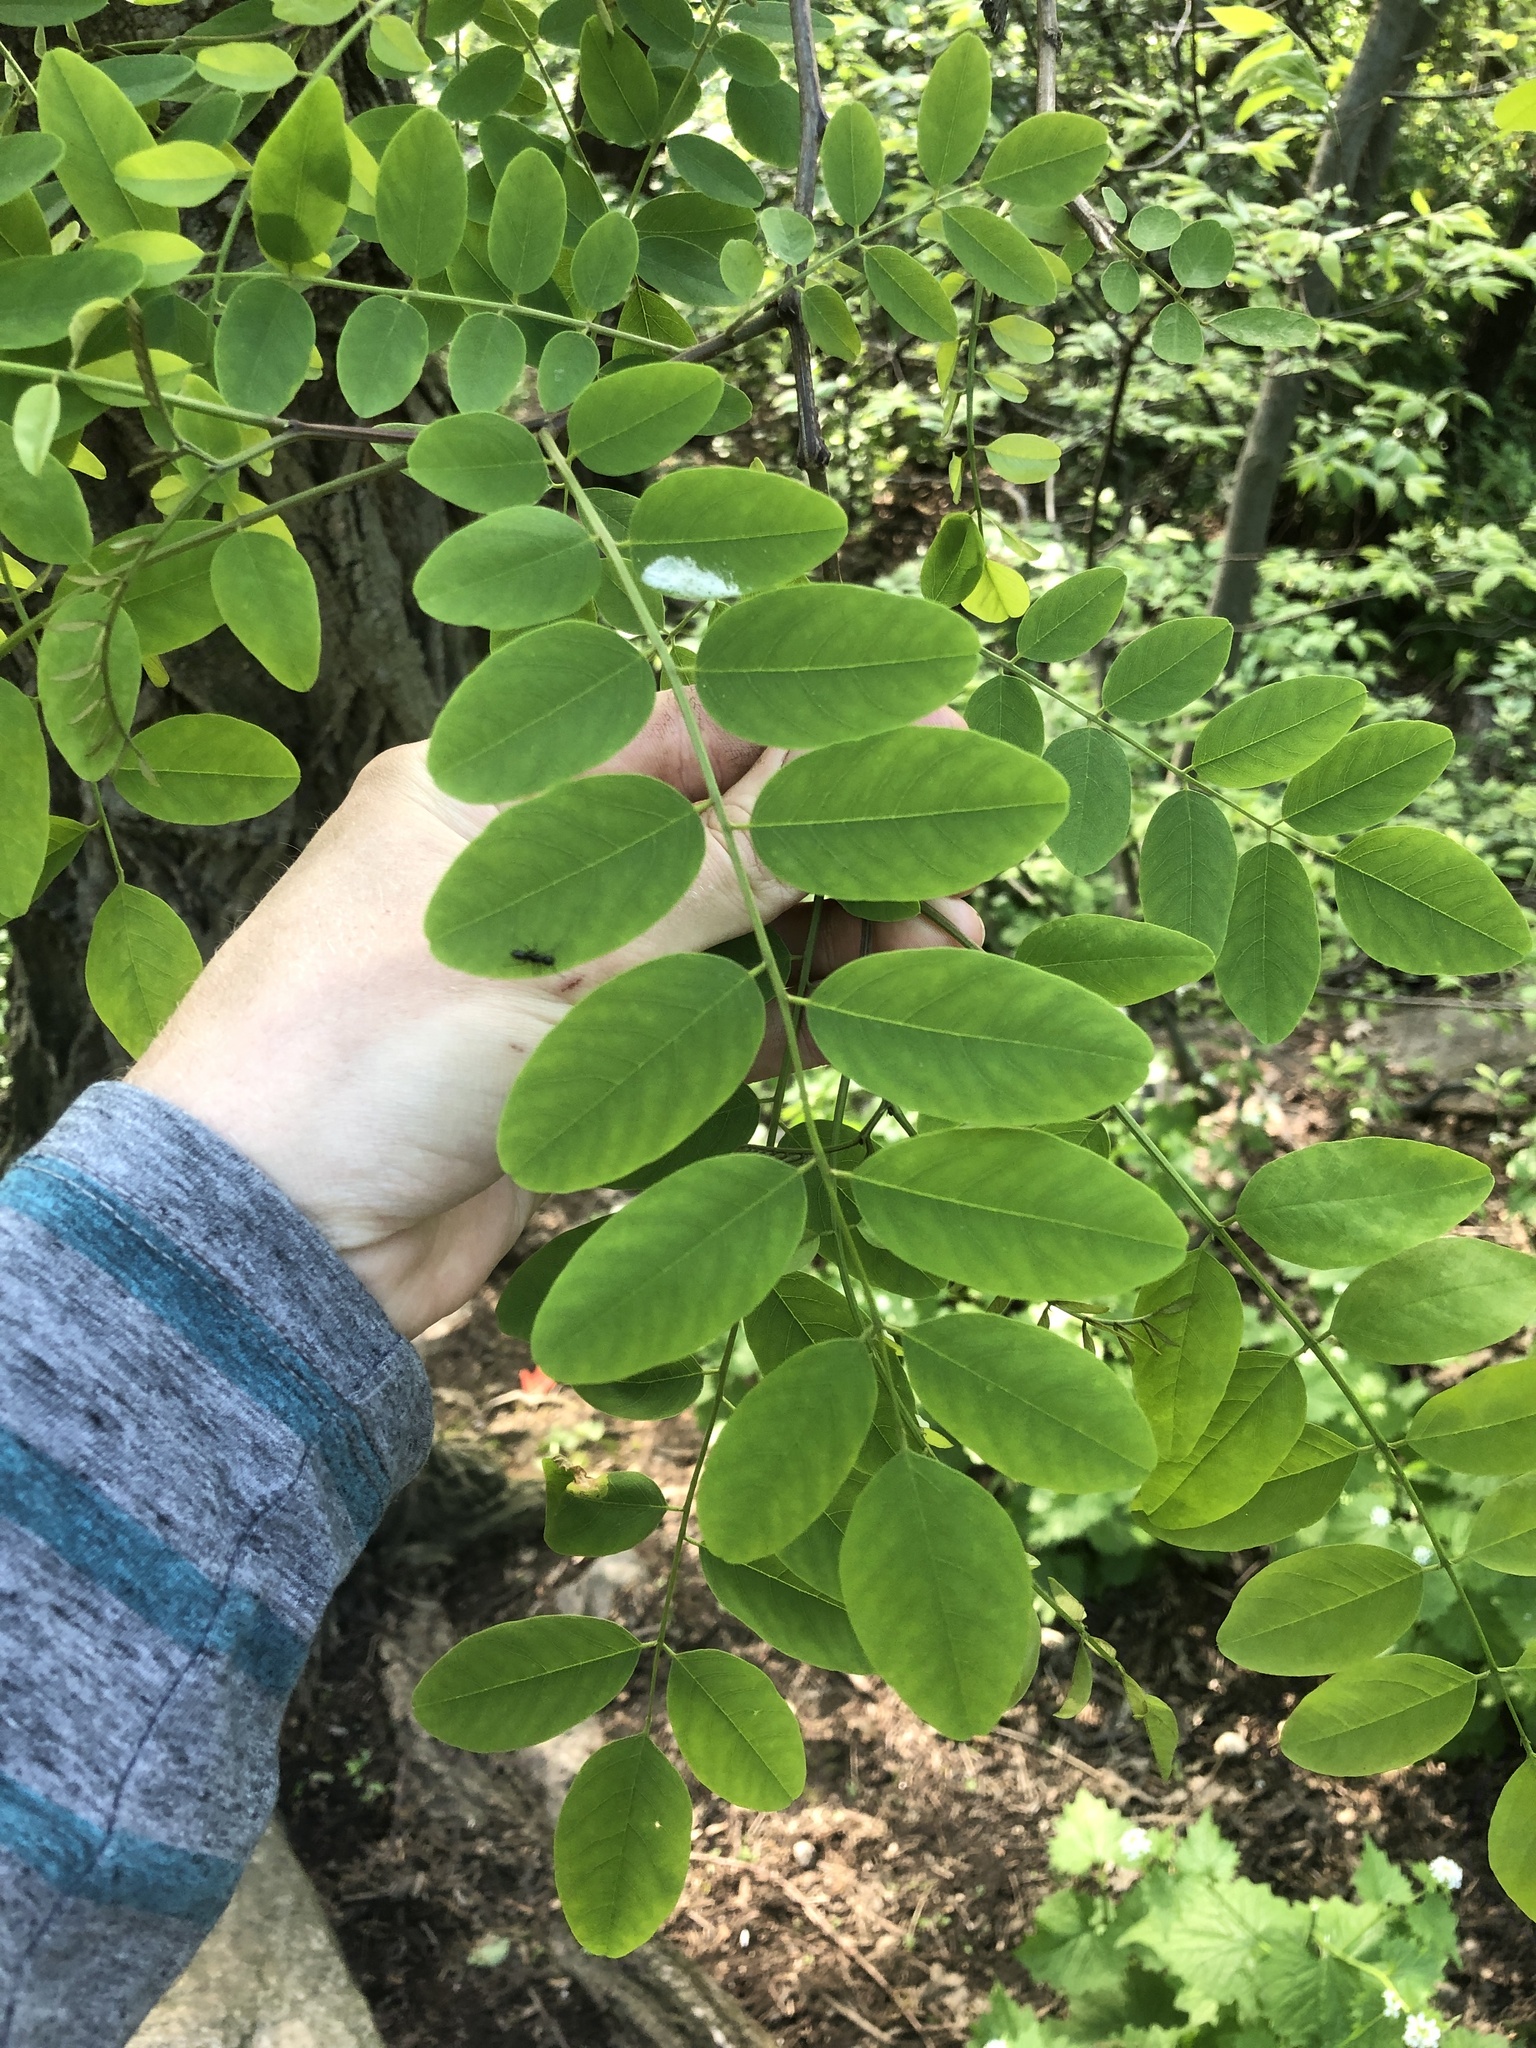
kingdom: Plantae
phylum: Tracheophyta
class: Magnoliopsida
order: Fabales
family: Fabaceae
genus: Robinia
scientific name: Robinia pseudoacacia
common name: Black locust
